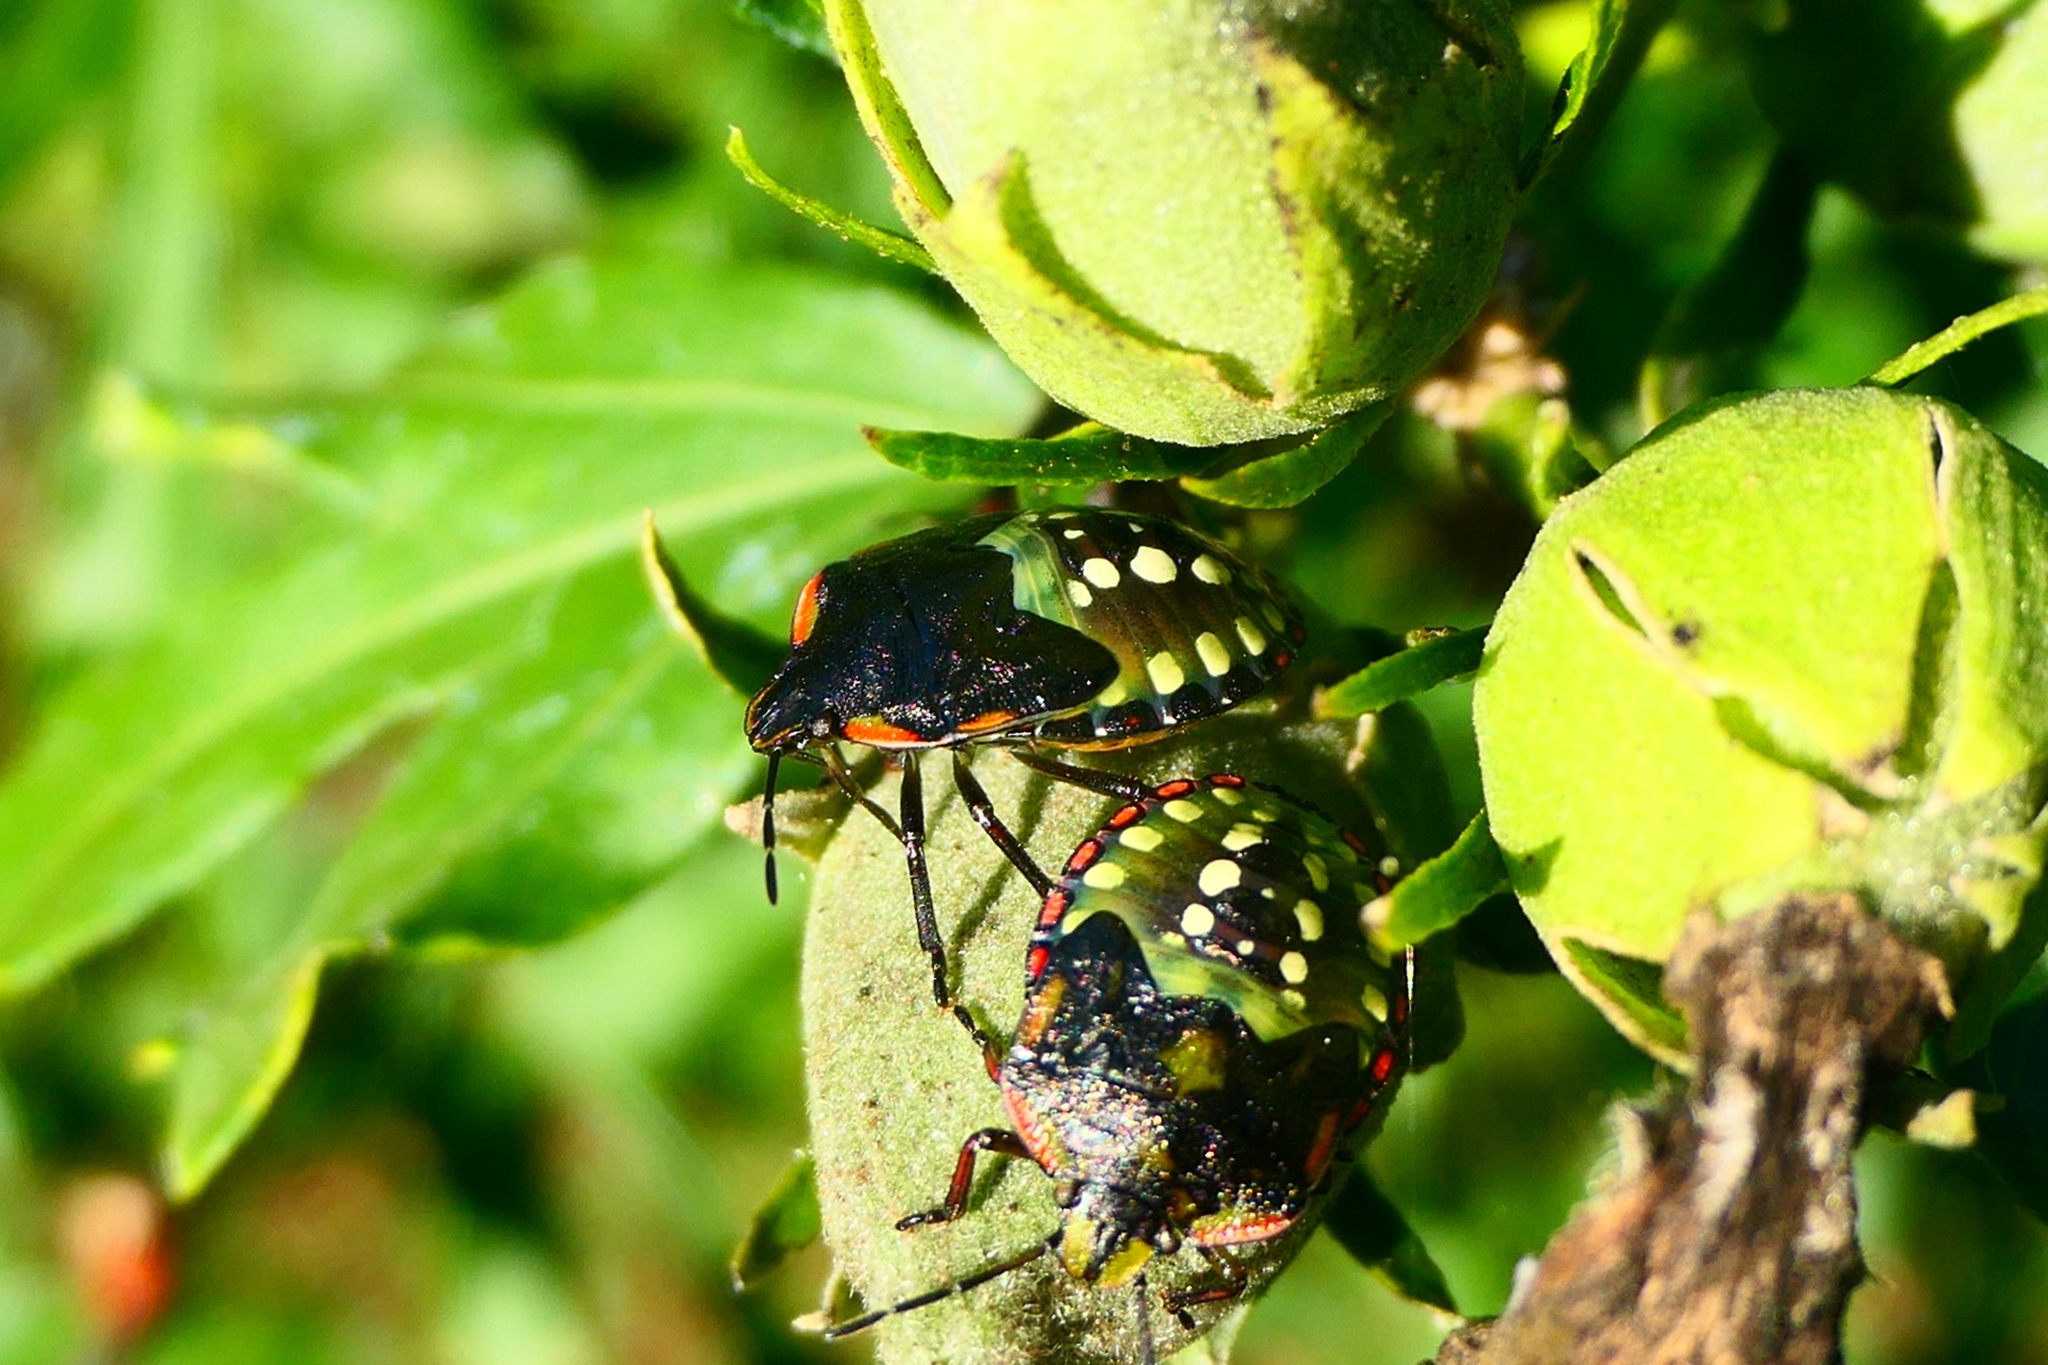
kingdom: Animalia
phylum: Arthropoda
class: Insecta
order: Hemiptera
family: Pentatomidae
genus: Nezara
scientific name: Nezara viridula
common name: Southern green stink bug
